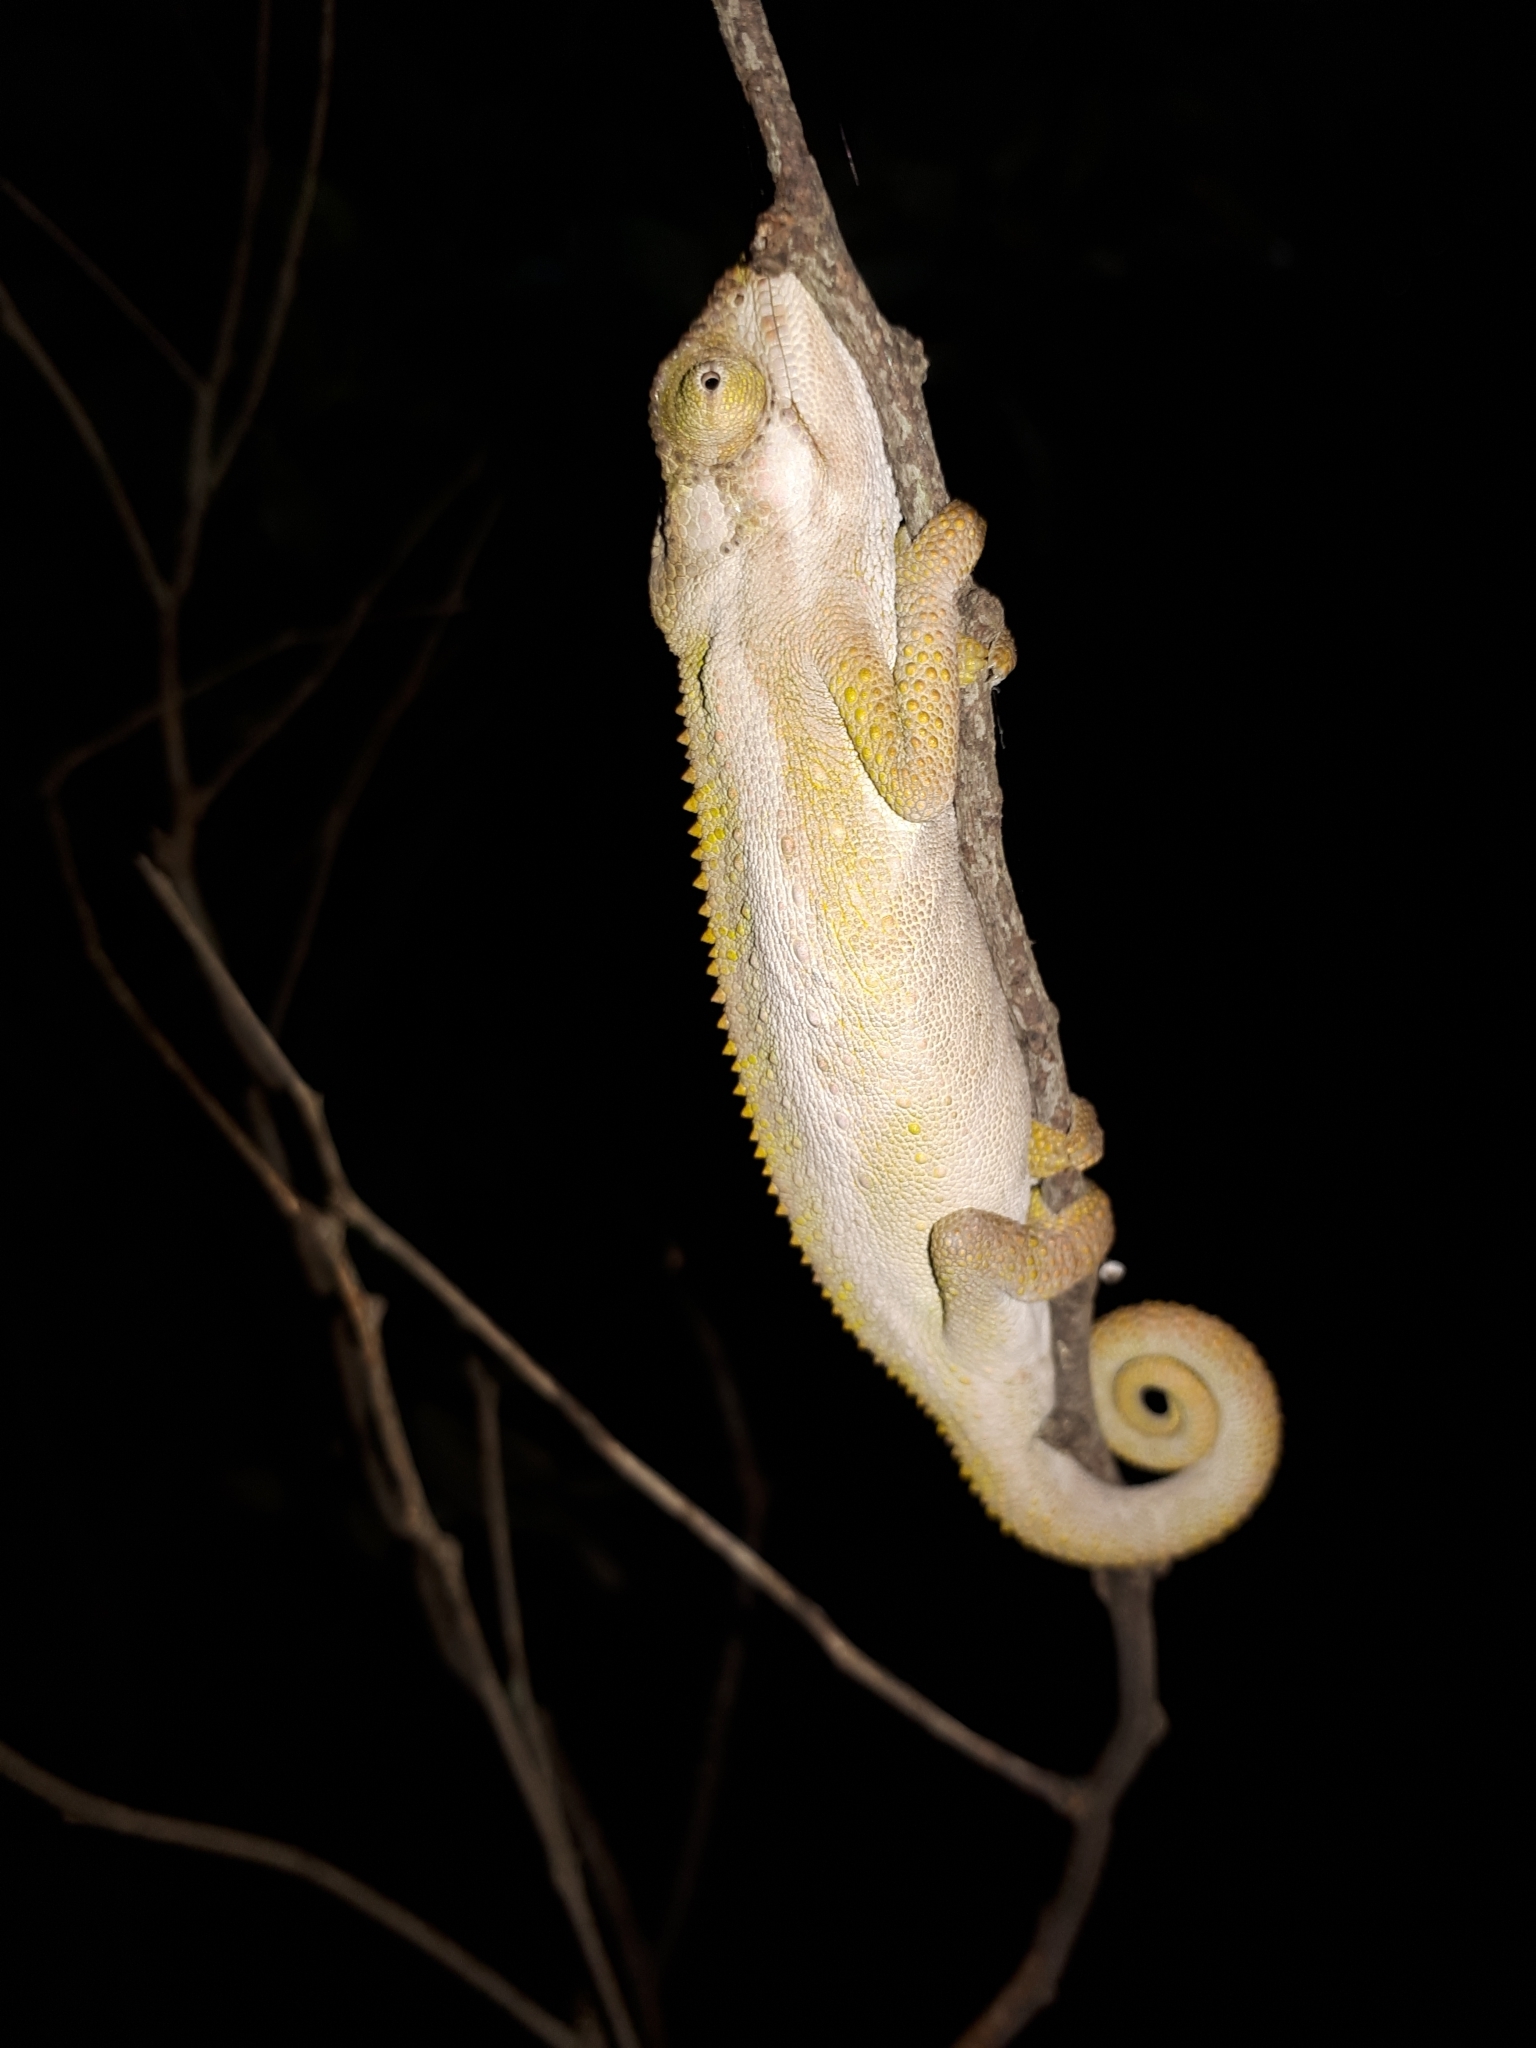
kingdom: Animalia
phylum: Chordata
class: Squamata
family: Chamaeleonidae
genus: Bradypodion
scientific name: Bradypodion pumilum
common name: Cape dwarf chameleon
